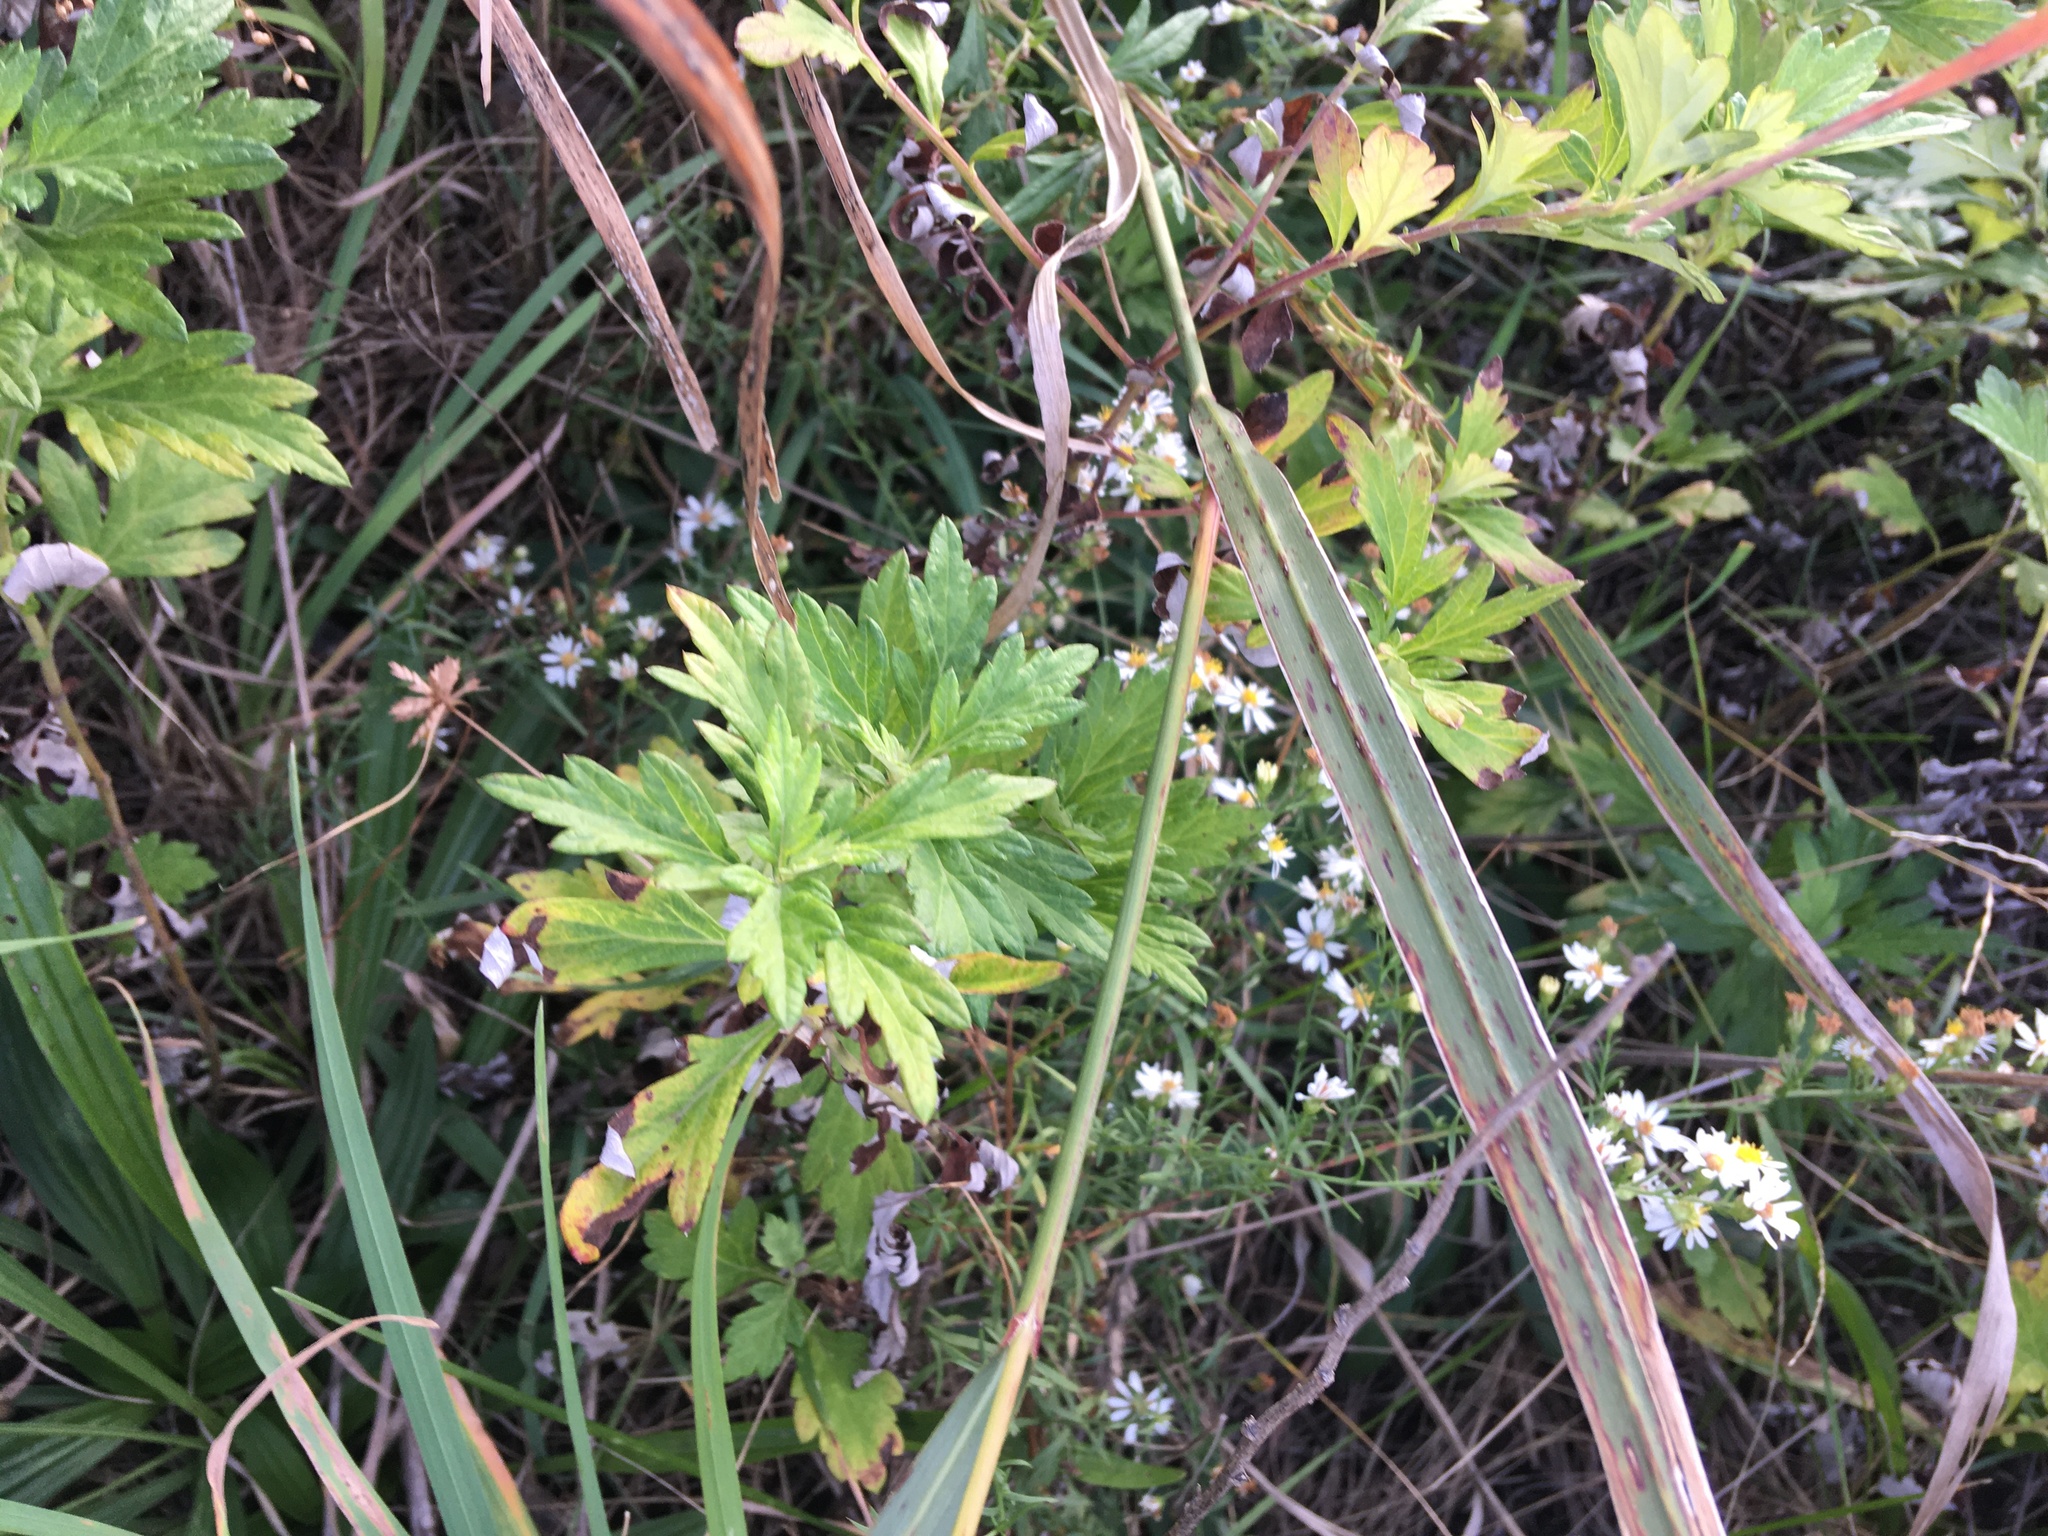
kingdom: Plantae
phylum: Tracheophyta
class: Magnoliopsida
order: Asterales
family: Asteraceae
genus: Artemisia
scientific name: Artemisia vulgaris
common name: Mugwort
